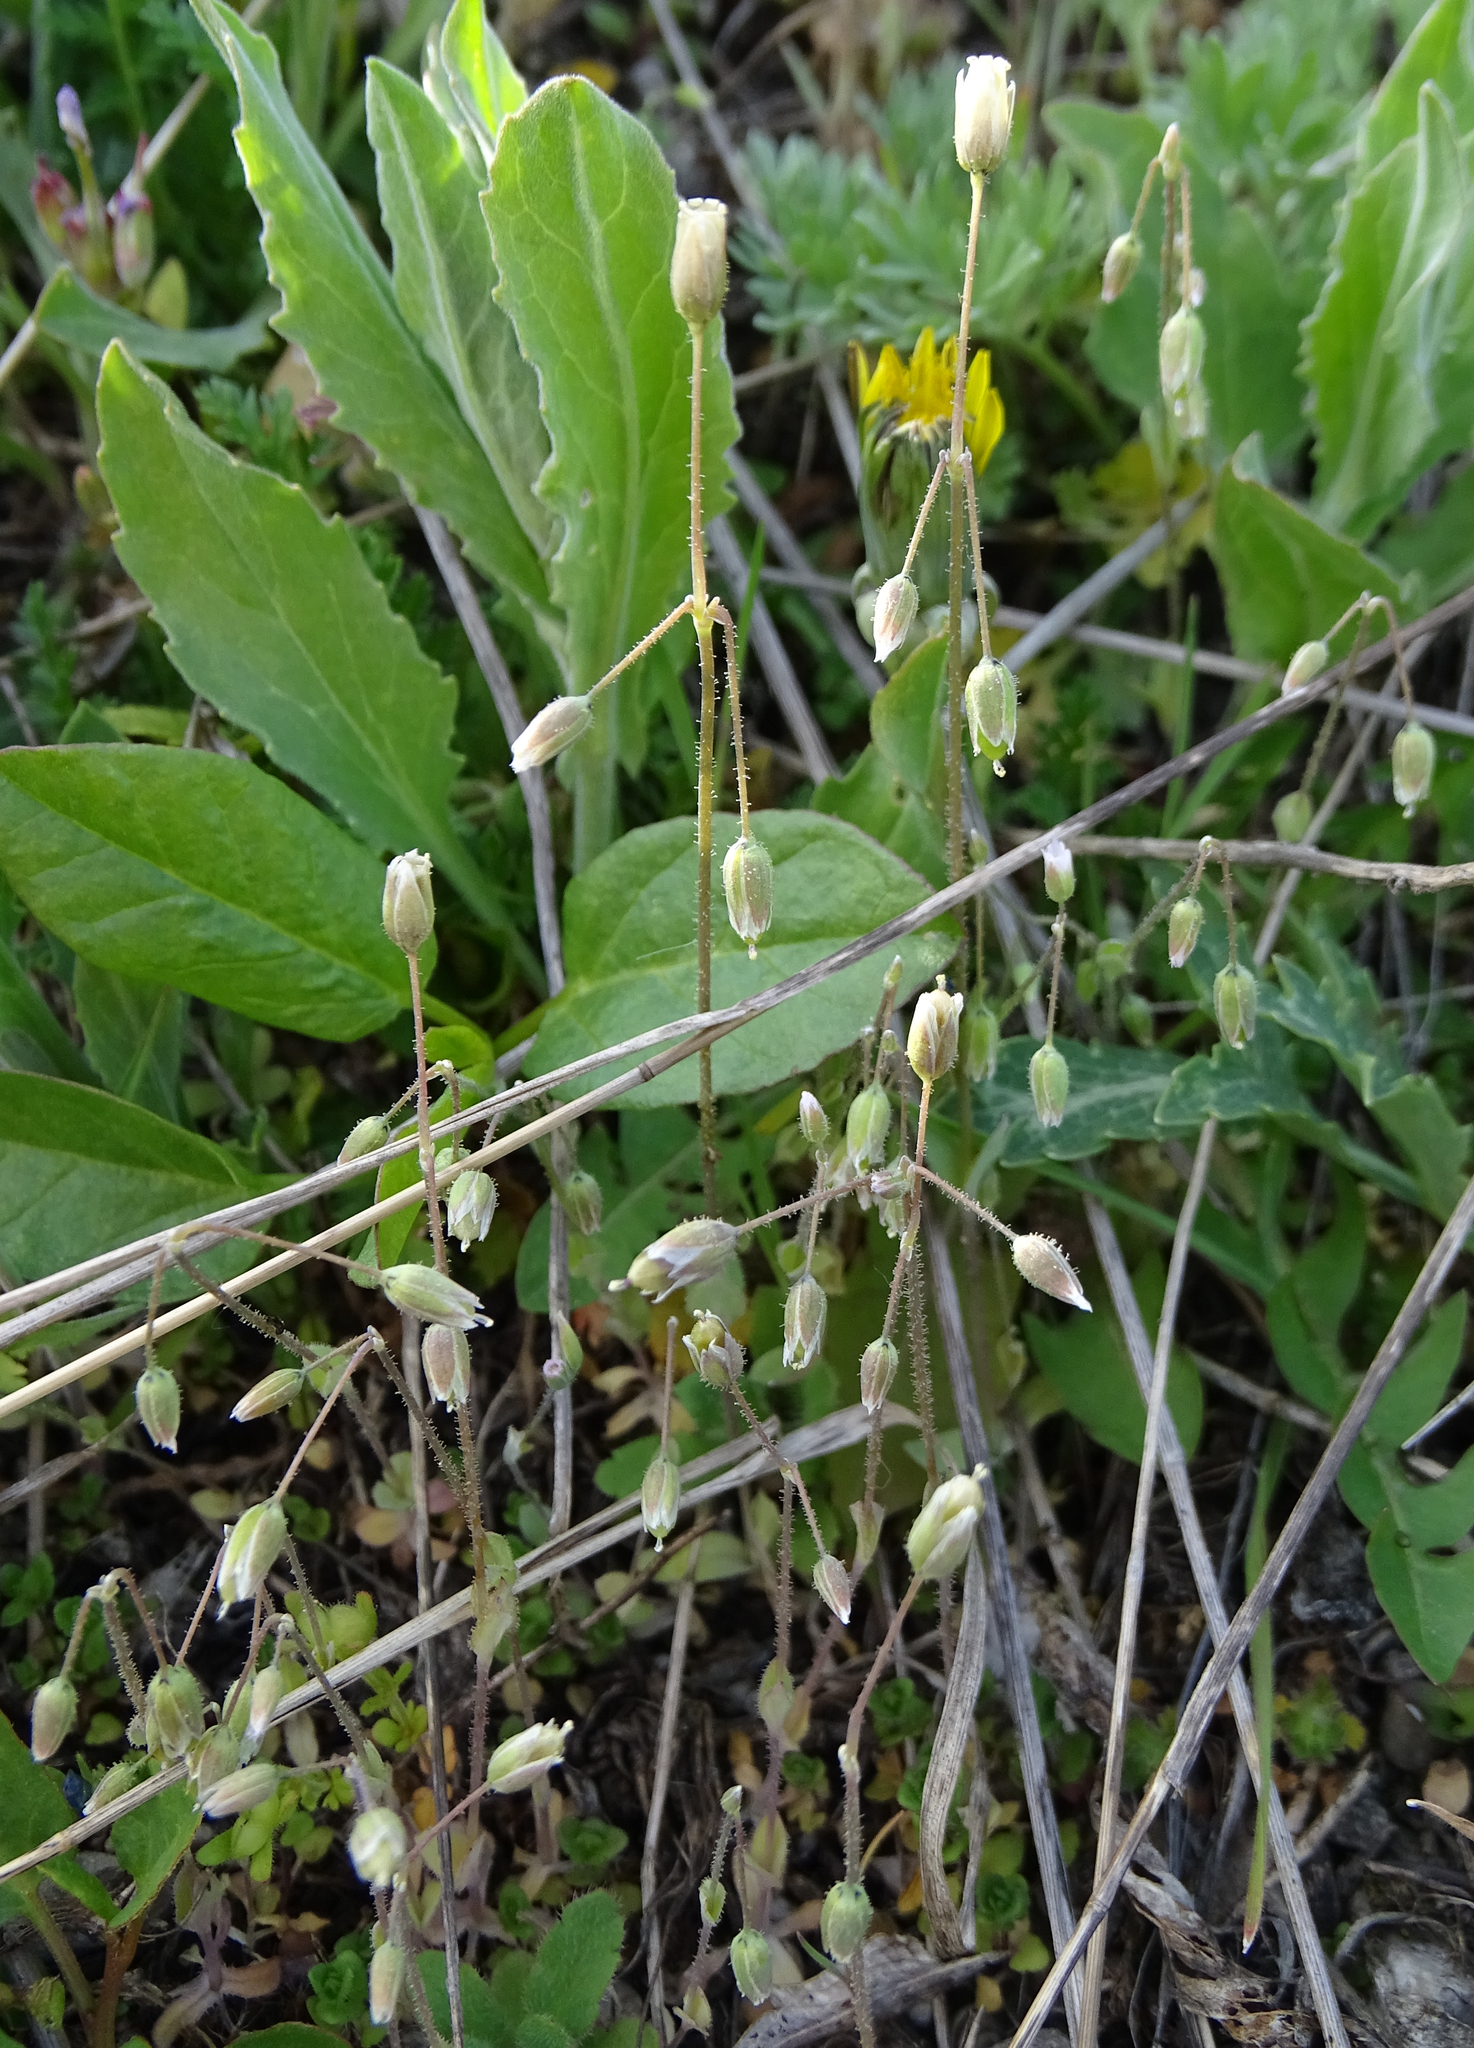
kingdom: Plantae
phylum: Tracheophyta
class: Magnoliopsida
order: Caryophyllales
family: Caryophyllaceae
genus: Holosteum
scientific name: Holosteum umbellatum
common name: Jagged chickweed
